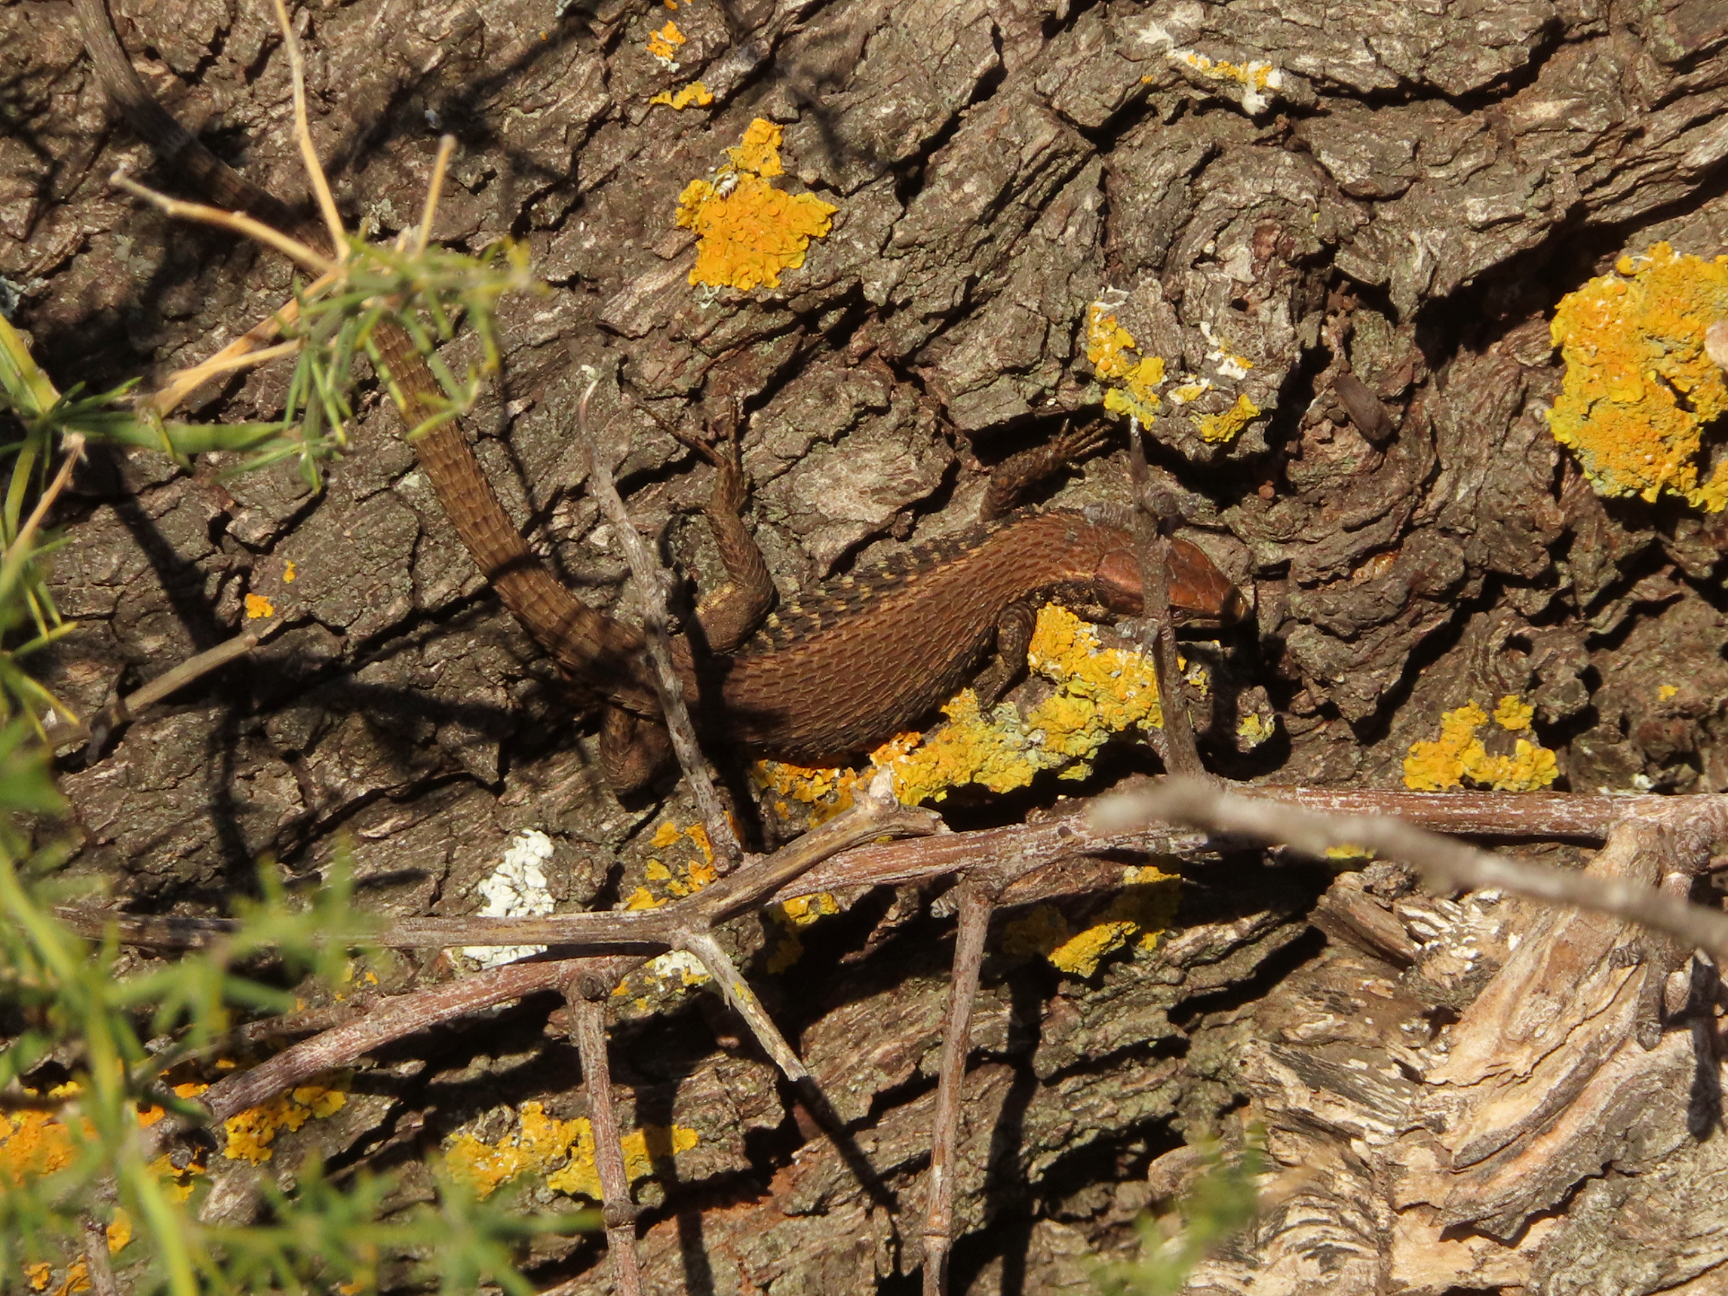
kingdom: Animalia
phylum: Chordata
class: Squamata
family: Lacertidae
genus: Algyroides
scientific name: Algyroides moreoticus
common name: Greek algyroides
